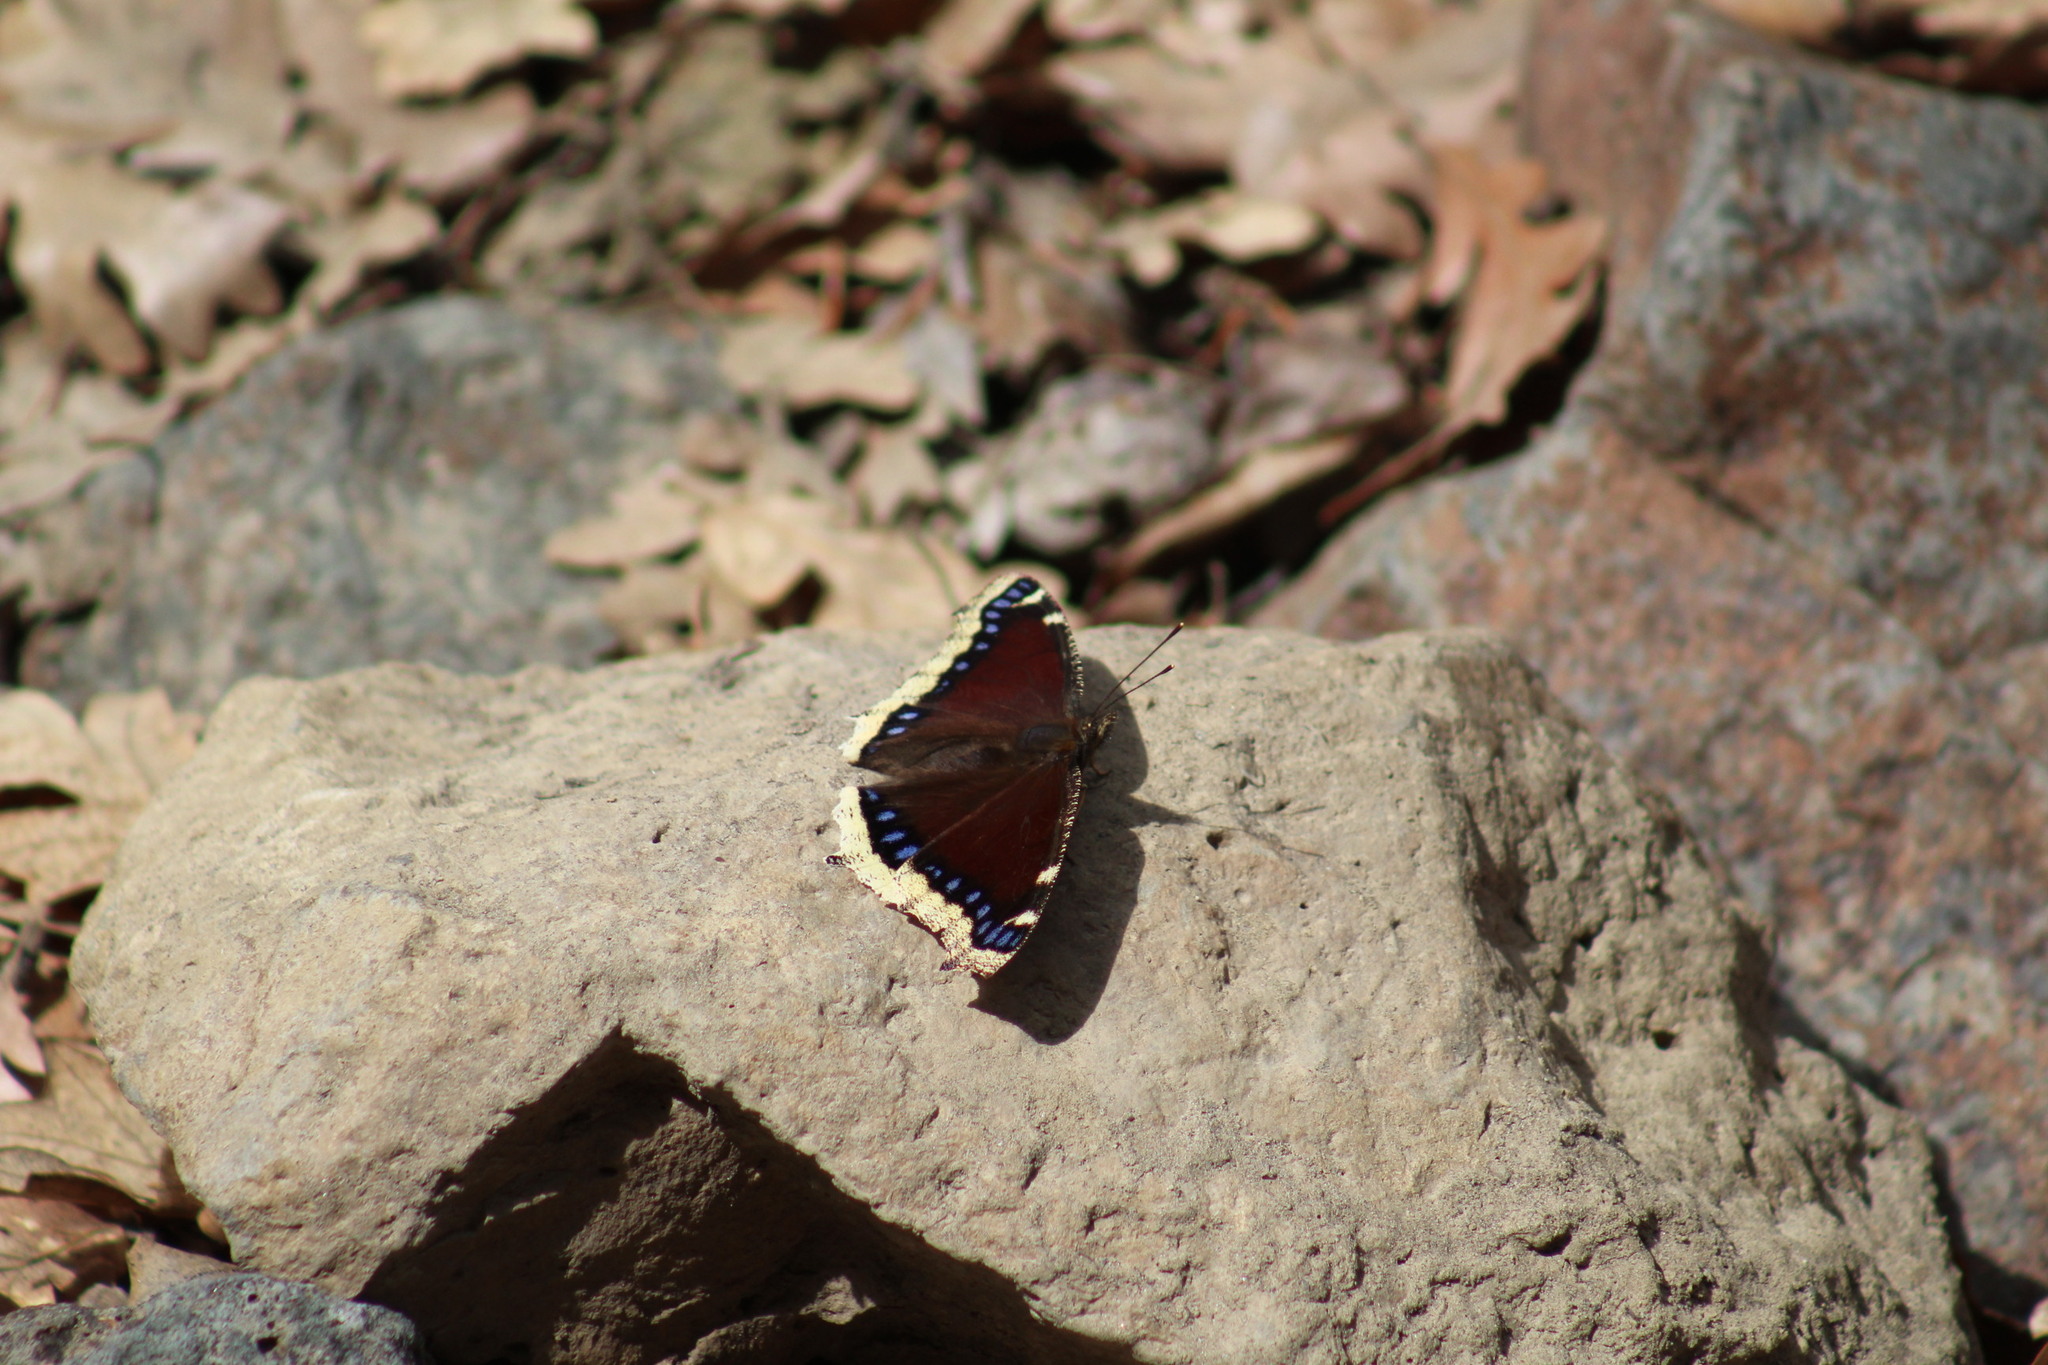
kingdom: Animalia
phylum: Arthropoda
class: Insecta
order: Lepidoptera
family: Nymphalidae
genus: Nymphalis
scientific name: Nymphalis antiopa
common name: Camberwell beauty
